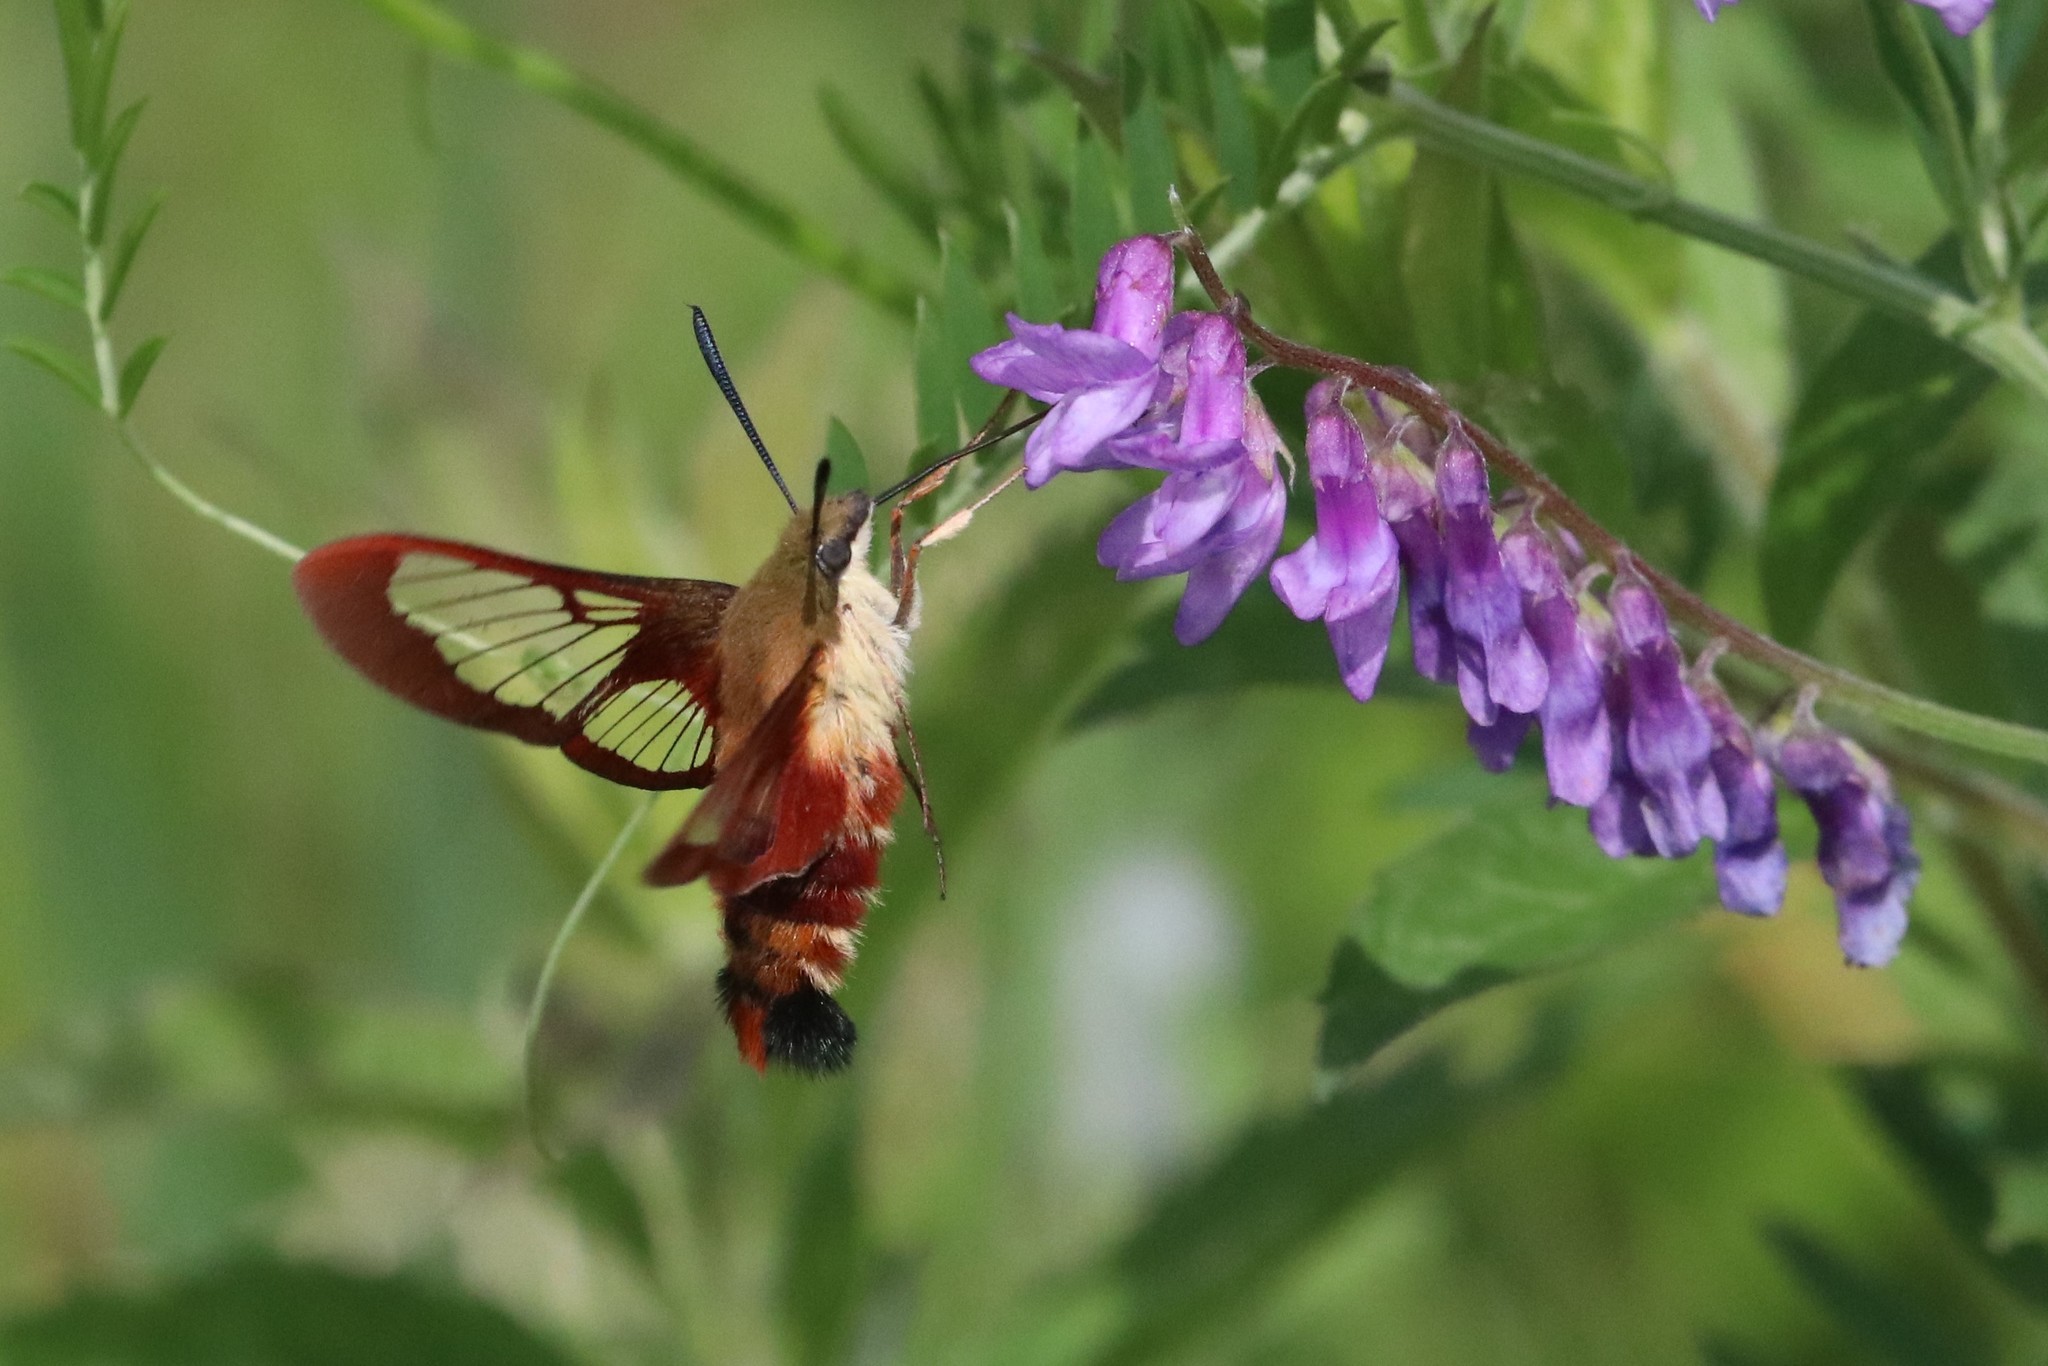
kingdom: Animalia
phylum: Arthropoda
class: Insecta
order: Lepidoptera
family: Sphingidae
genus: Hemaris
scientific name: Hemaris thysbe
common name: Common clear-wing
